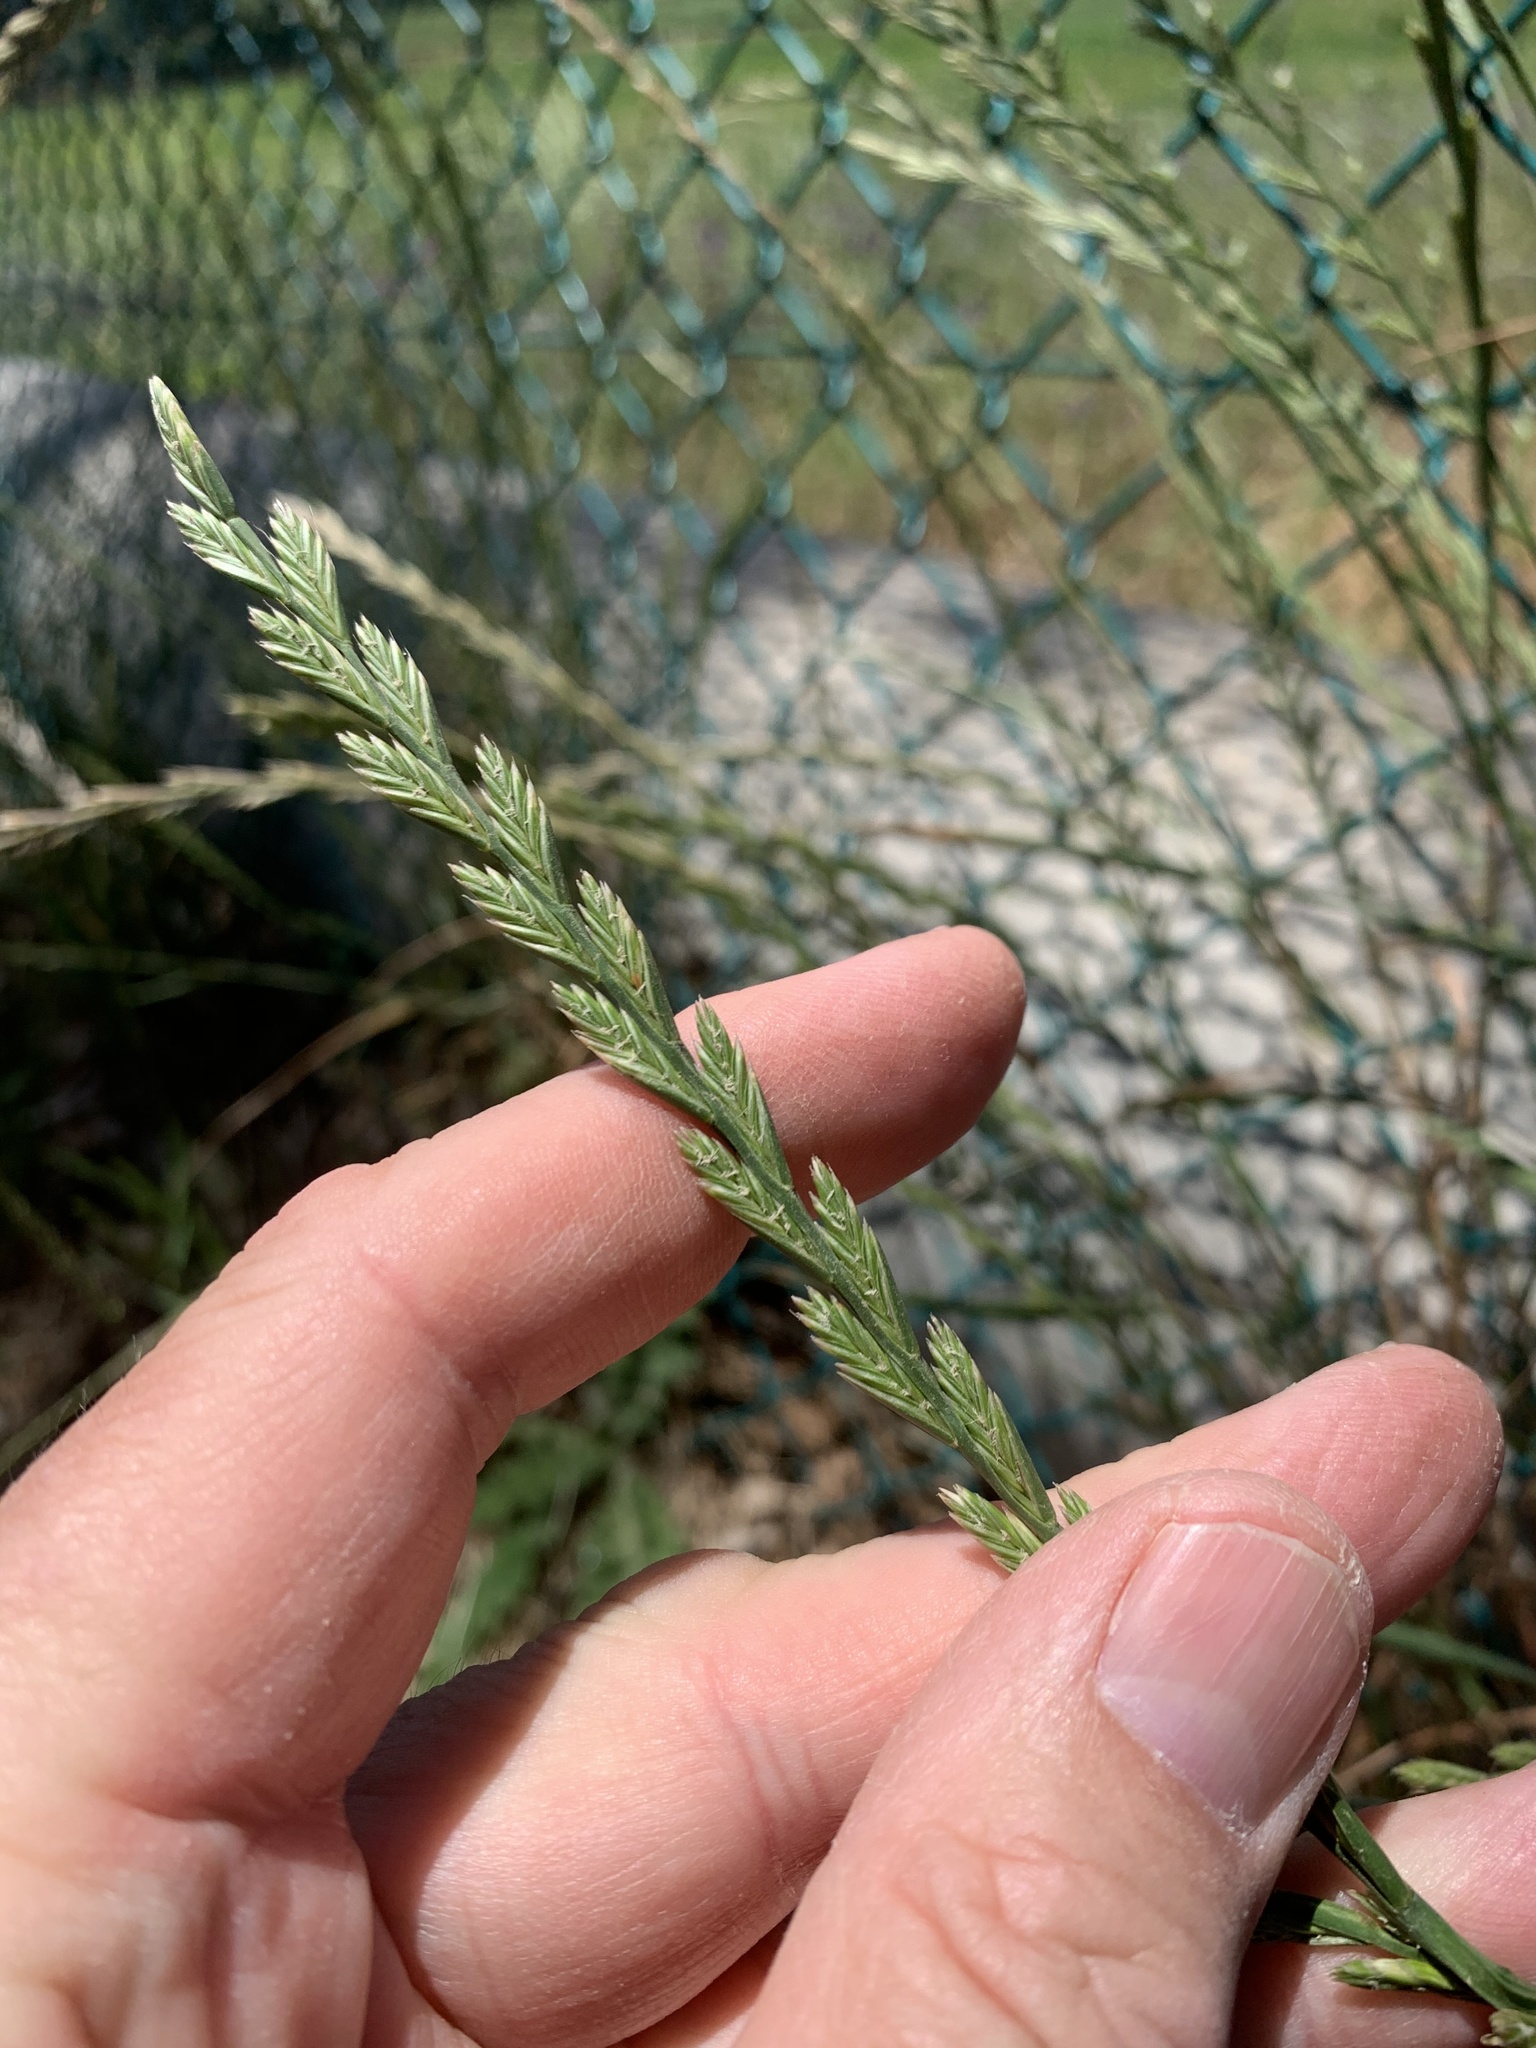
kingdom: Plantae
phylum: Tracheophyta
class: Liliopsida
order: Poales
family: Poaceae
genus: Lolium
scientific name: Lolium multiflorum
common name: Annual ryegrass
